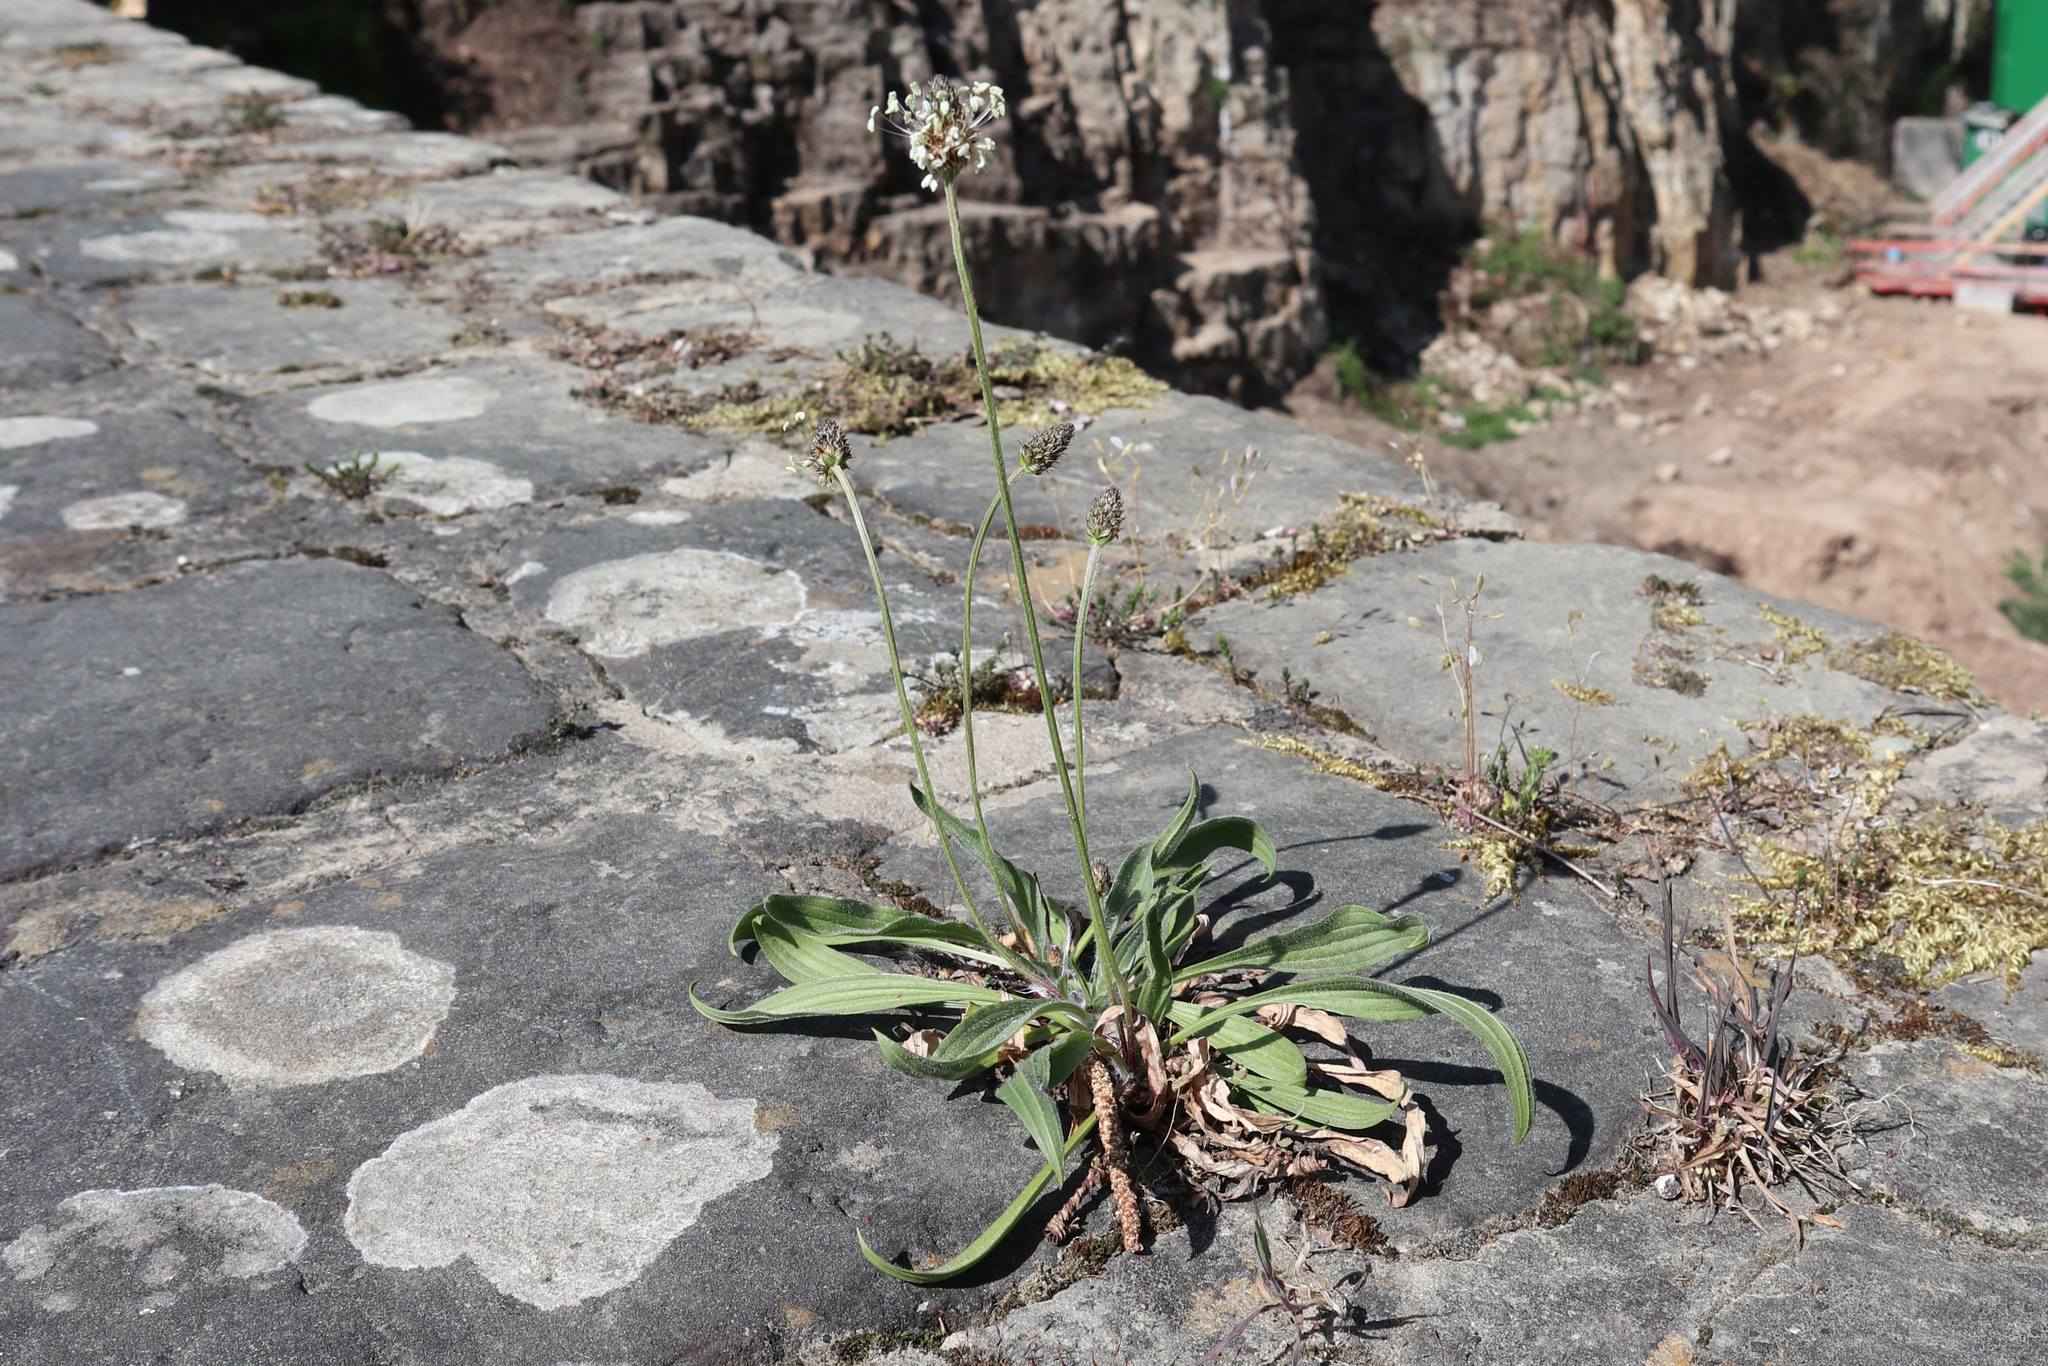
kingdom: Plantae
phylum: Tracheophyta
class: Magnoliopsida
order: Lamiales
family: Plantaginaceae
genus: Plantago
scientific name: Plantago lanceolata
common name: Ribwort plantain
